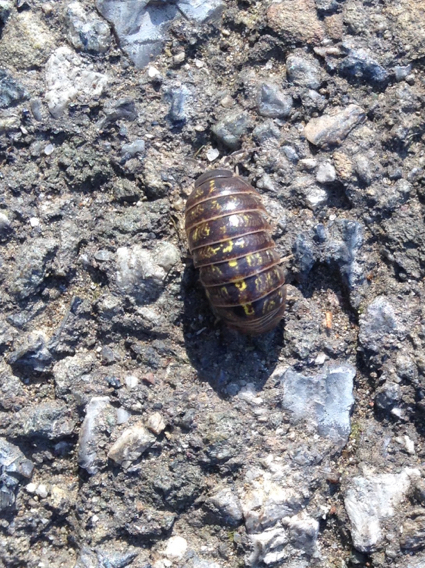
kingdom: Animalia
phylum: Arthropoda
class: Malacostraca
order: Isopoda
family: Armadillidiidae
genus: Armadillidium
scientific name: Armadillidium vulgare
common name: Common pill woodlouse
